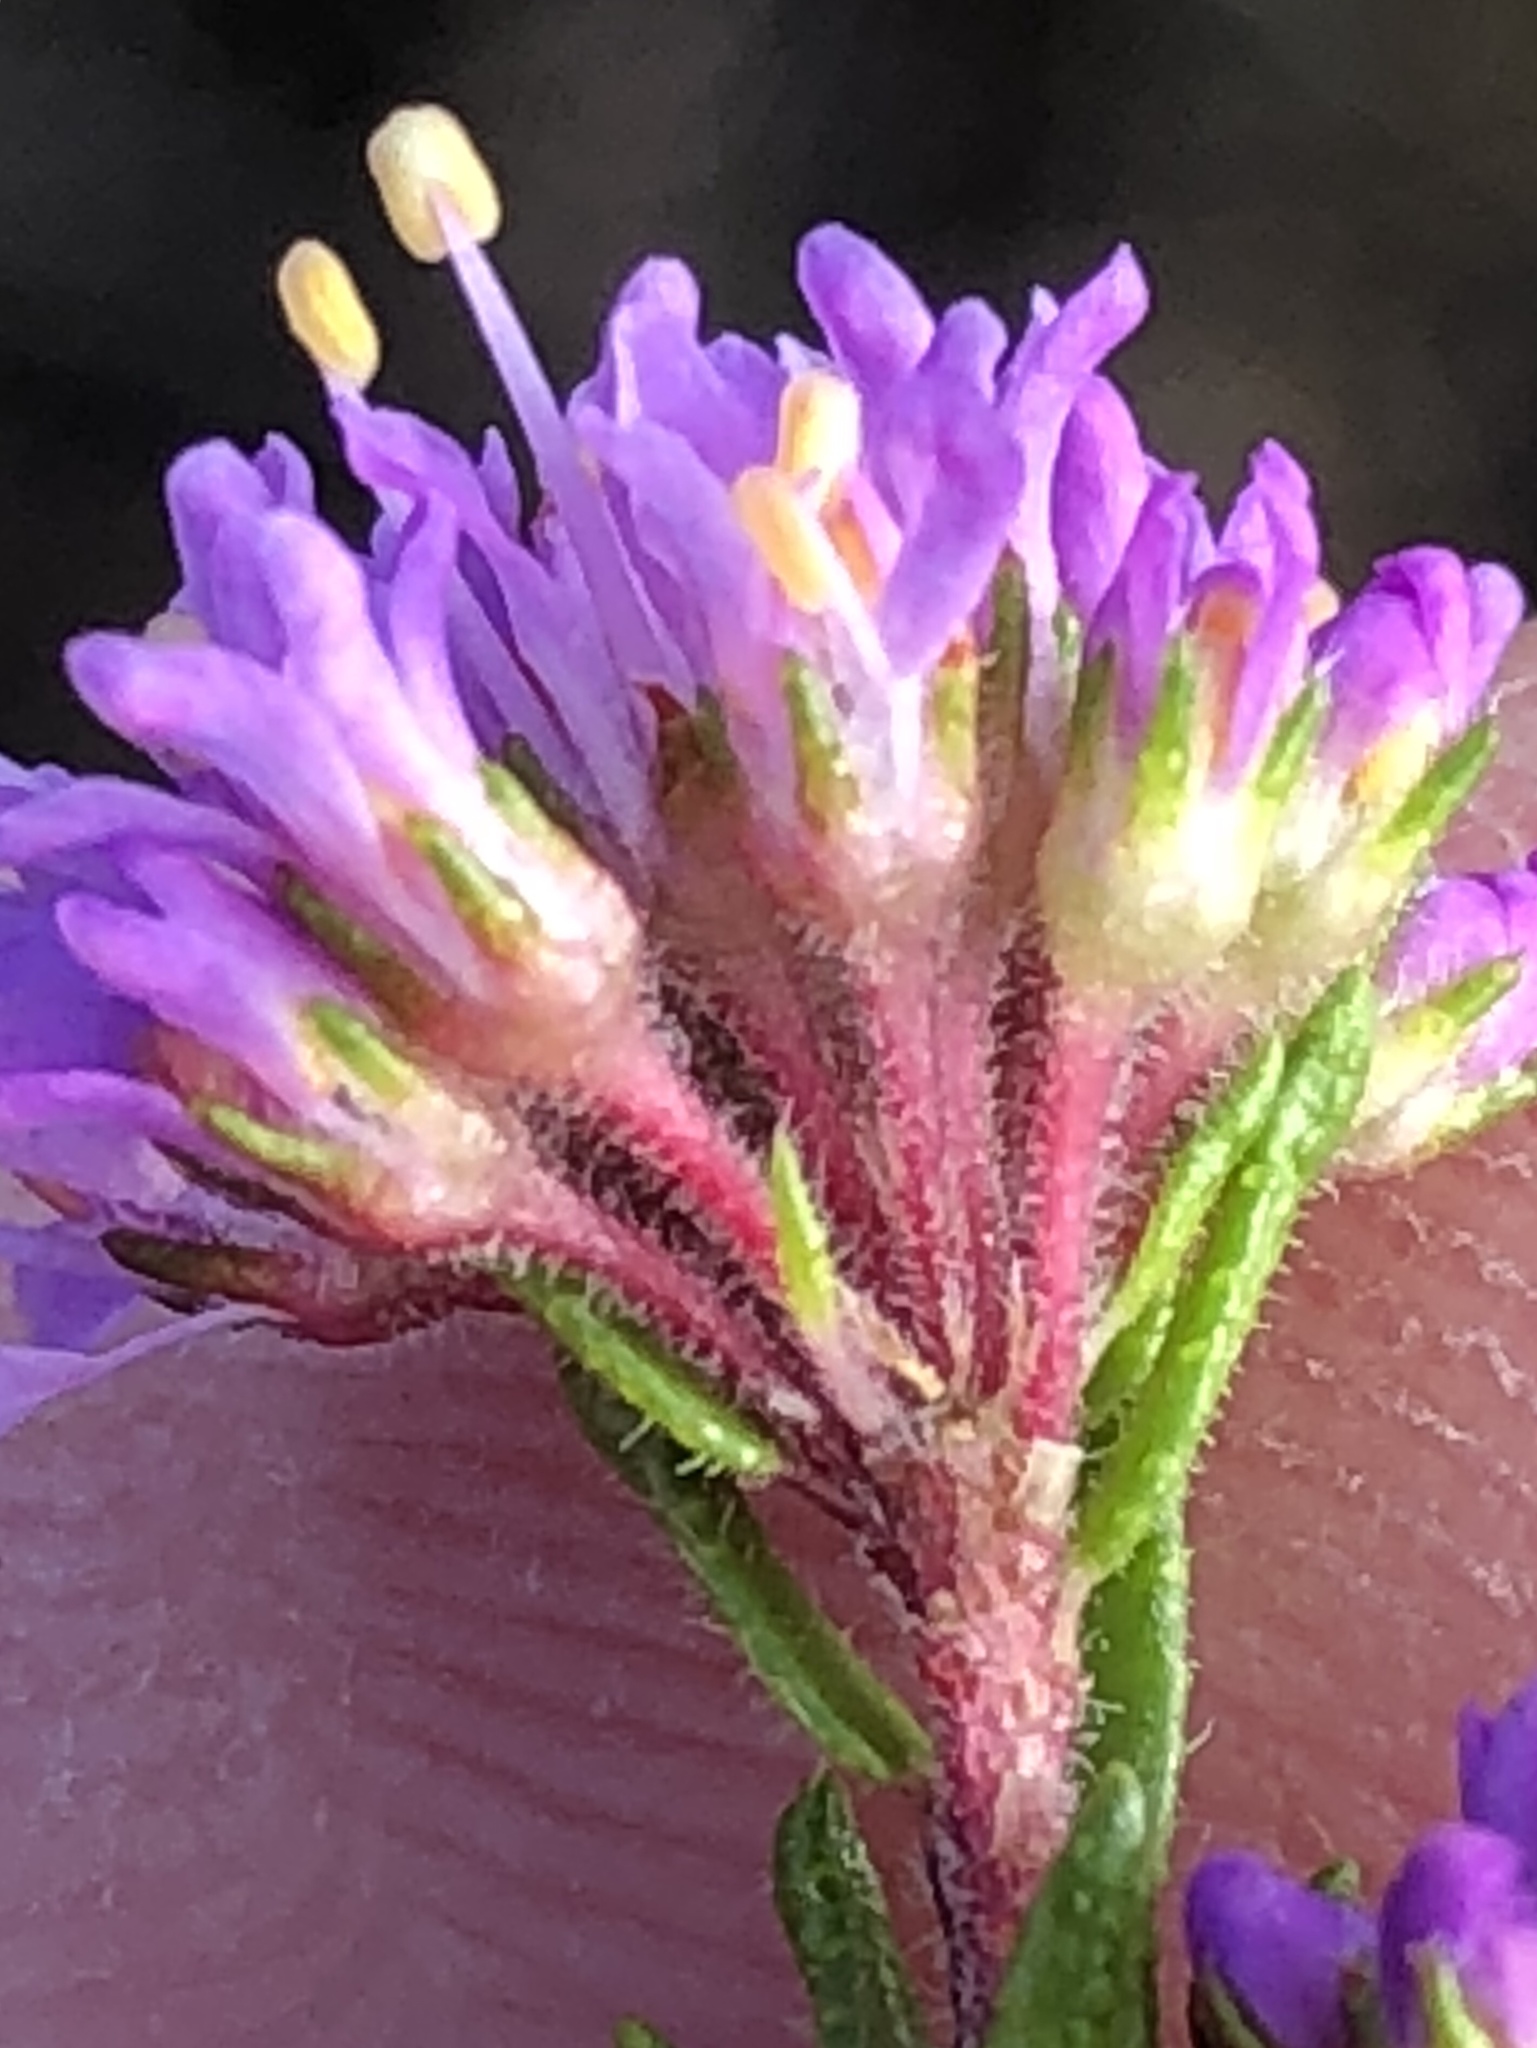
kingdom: Plantae
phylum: Tracheophyta
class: Magnoliopsida
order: Sapindales
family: Rutaceae
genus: Agathosma
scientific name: Agathosma serpyllacea
